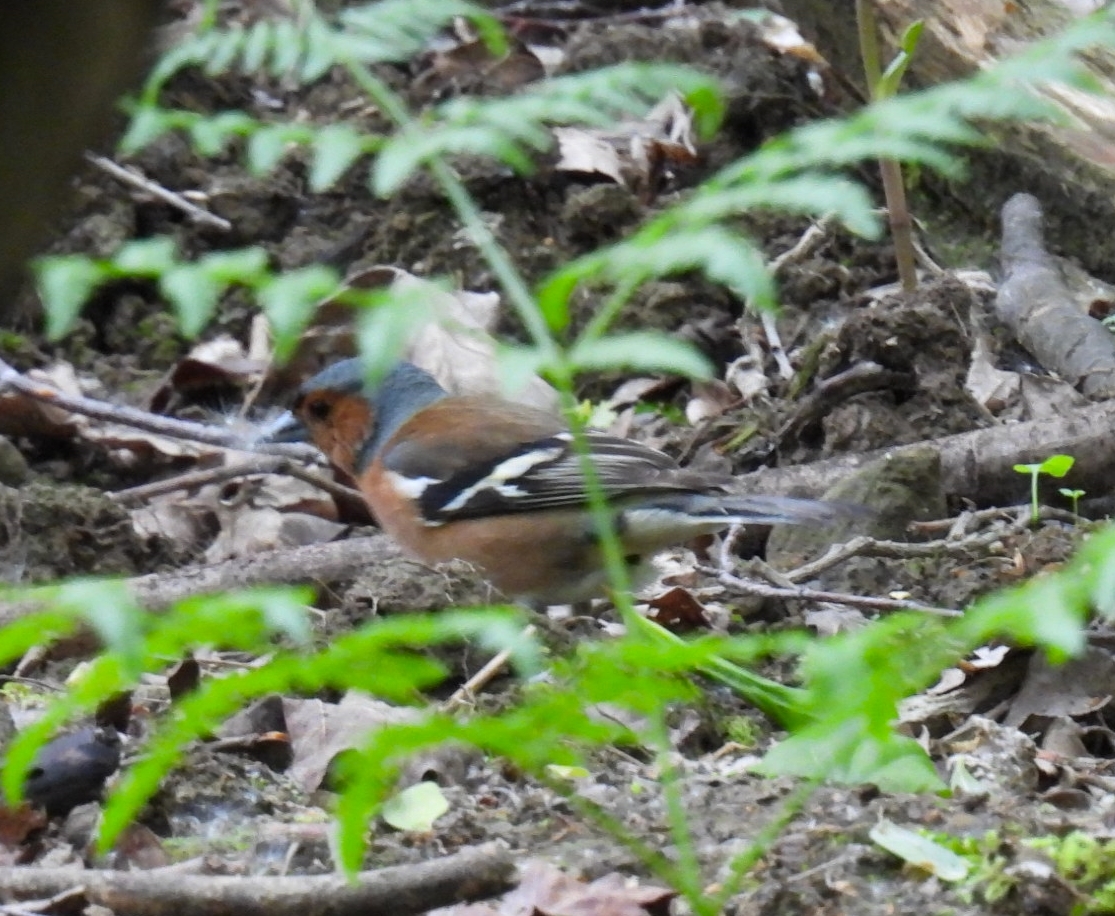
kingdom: Animalia
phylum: Chordata
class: Aves
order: Passeriformes
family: Fringillidae
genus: Fringilla
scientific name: Fringilla coelebs
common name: Common chaffinch
